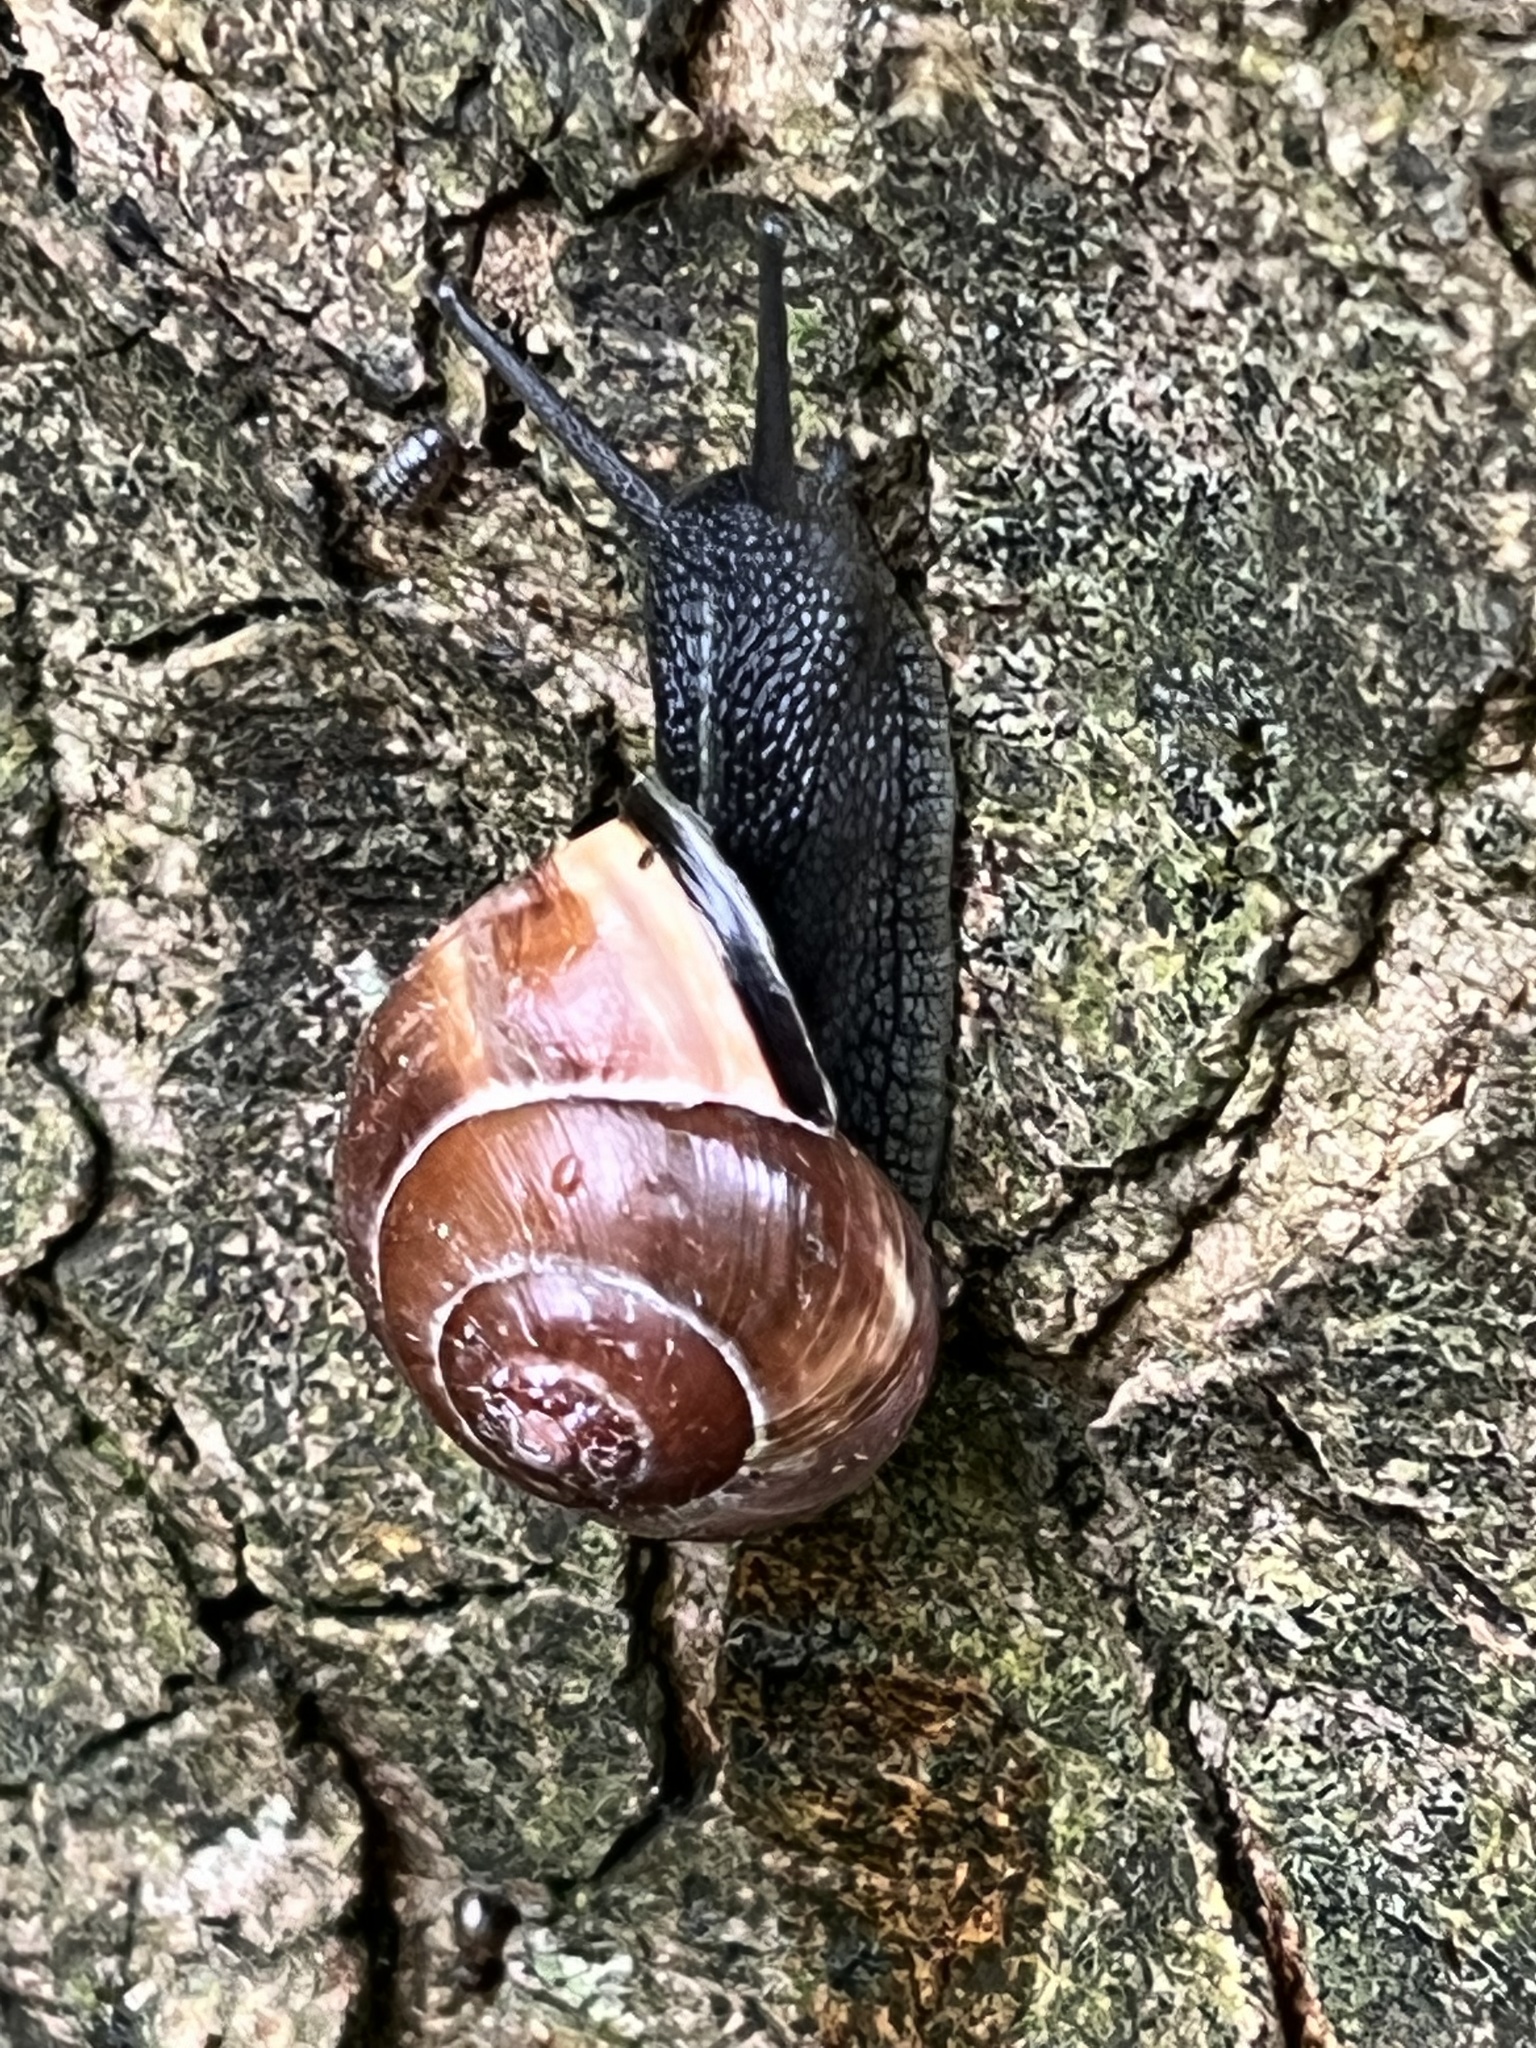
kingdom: Animalia
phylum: Mollusca
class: Gastropoda
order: Stylommatophora
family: Helicidae
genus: Cepaea
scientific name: Cepaea nemoralis
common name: Grovesnail
